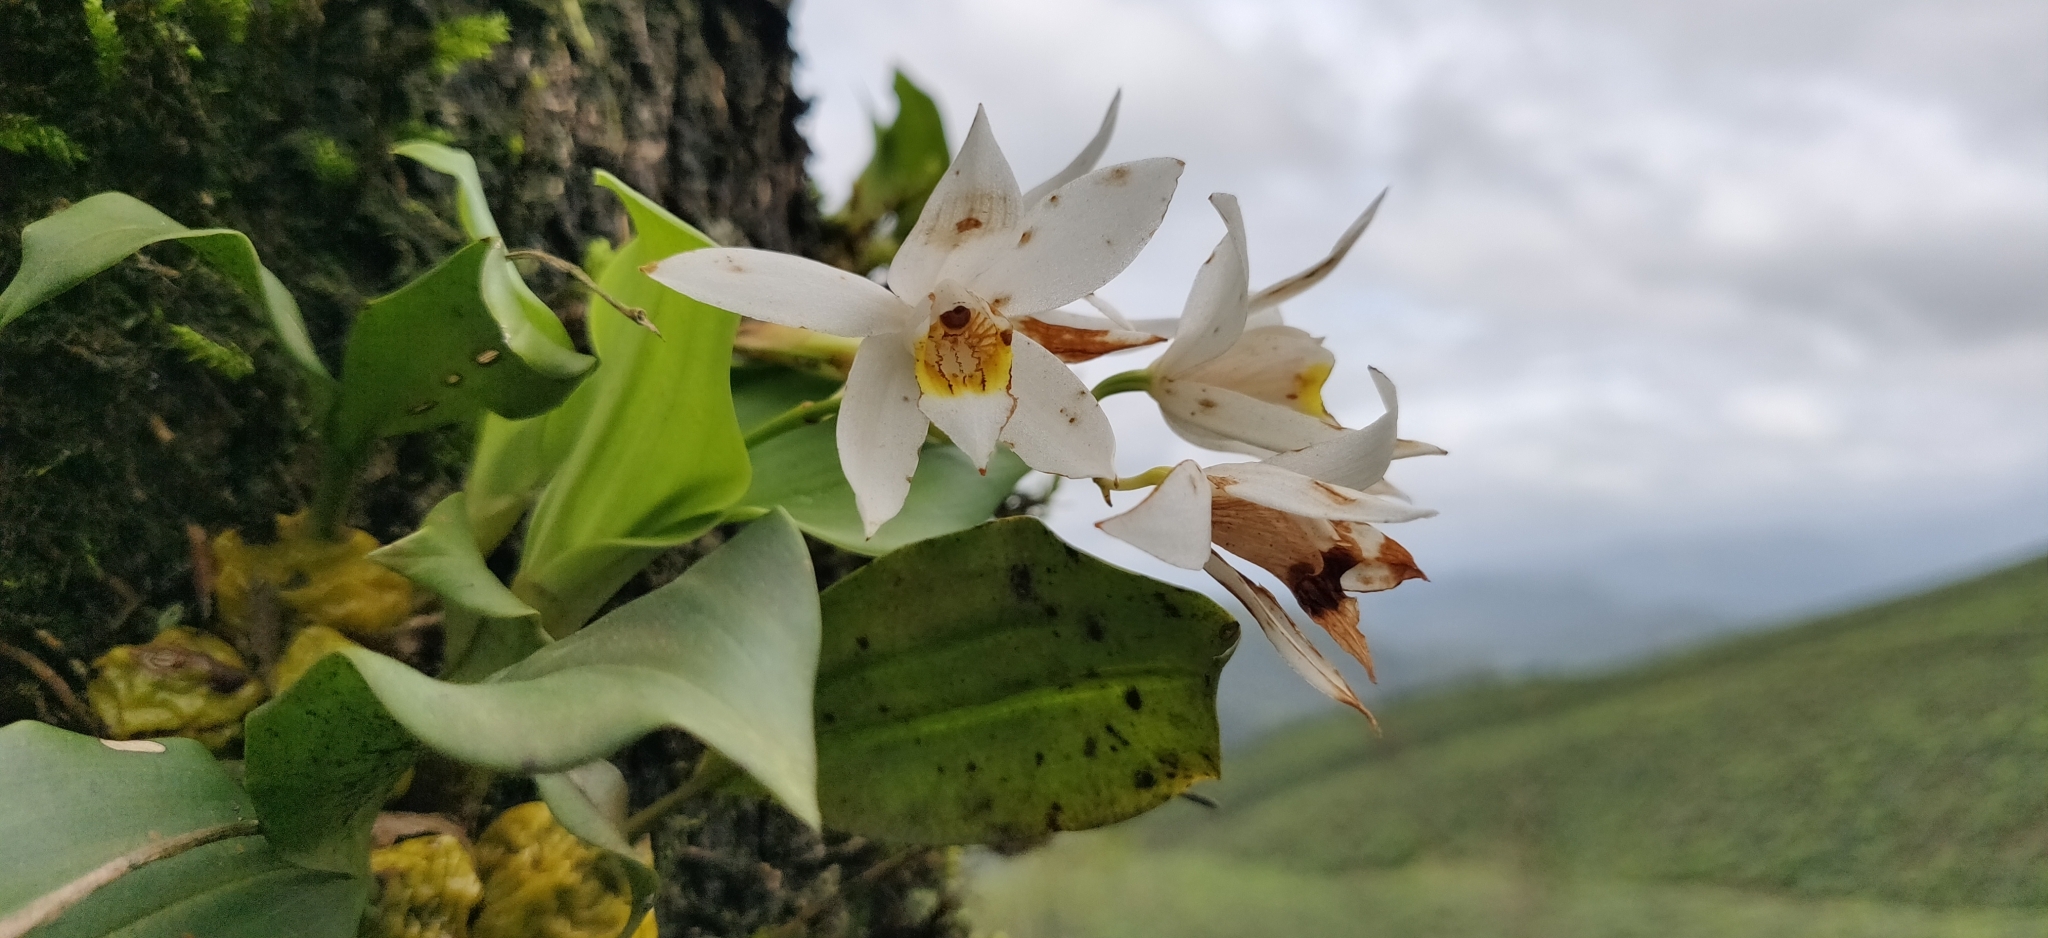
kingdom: Plantae
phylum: Tracheophyta
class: Liliopsida
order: Asparagales
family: Orchidaceae
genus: Coelogyne
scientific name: Coelogyne nervosa
